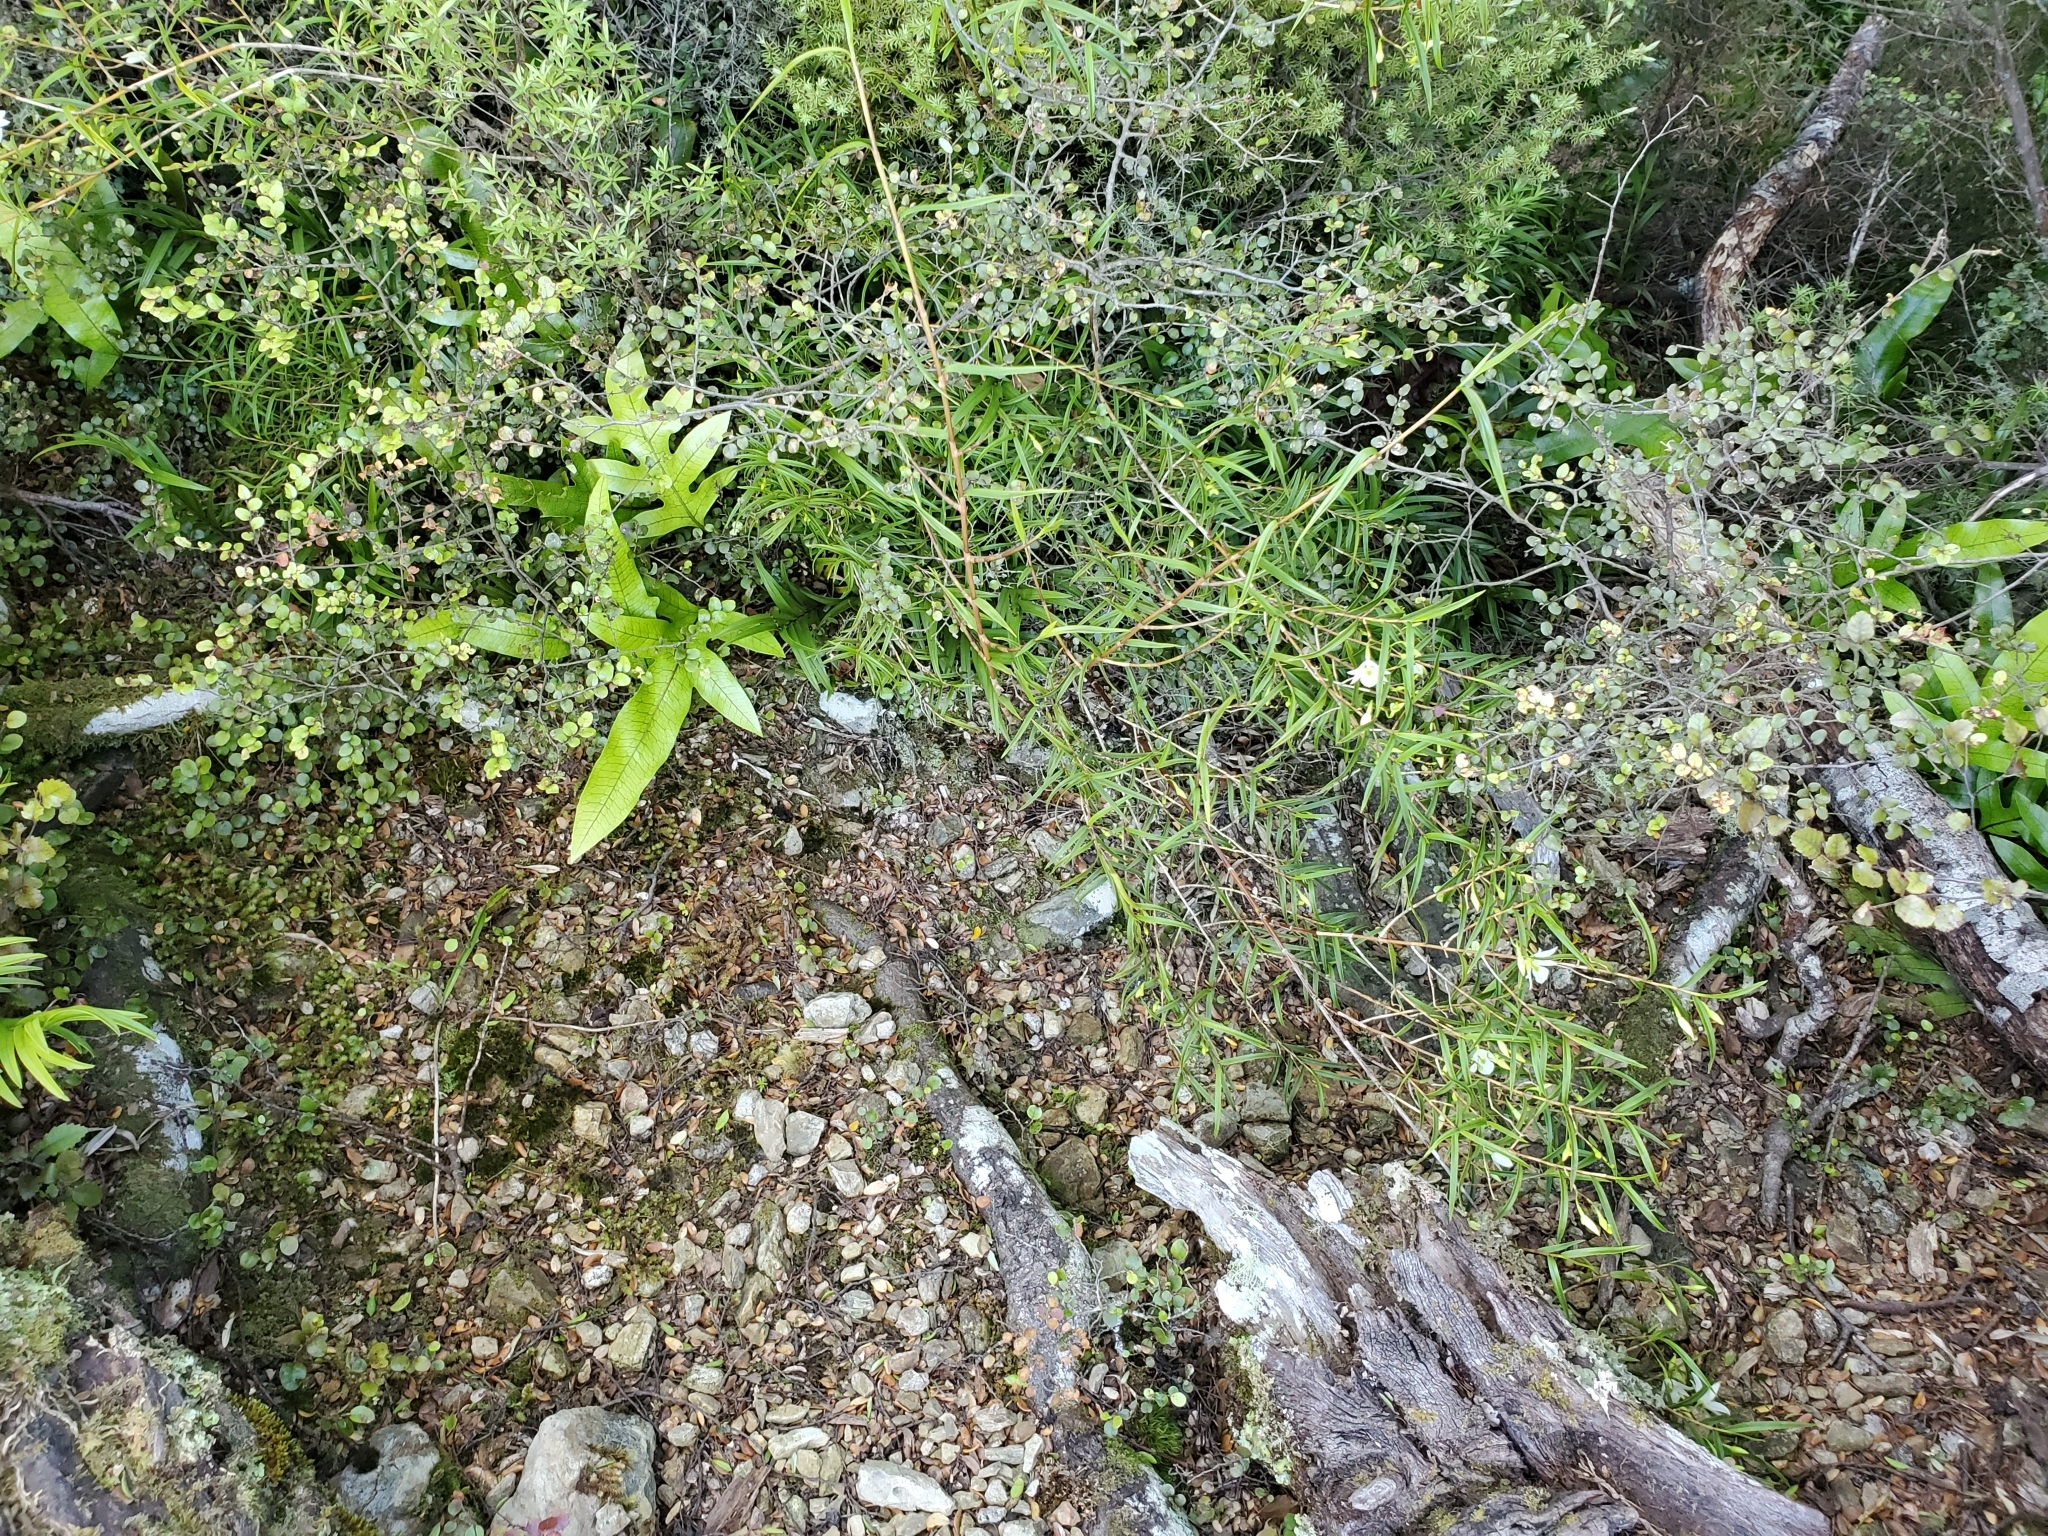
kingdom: Plantae
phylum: Tracheophyta
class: Liliopsida
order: Asparagales
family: Orchidaceae
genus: Dendrobium
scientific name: Dendrobium cunninghamii
